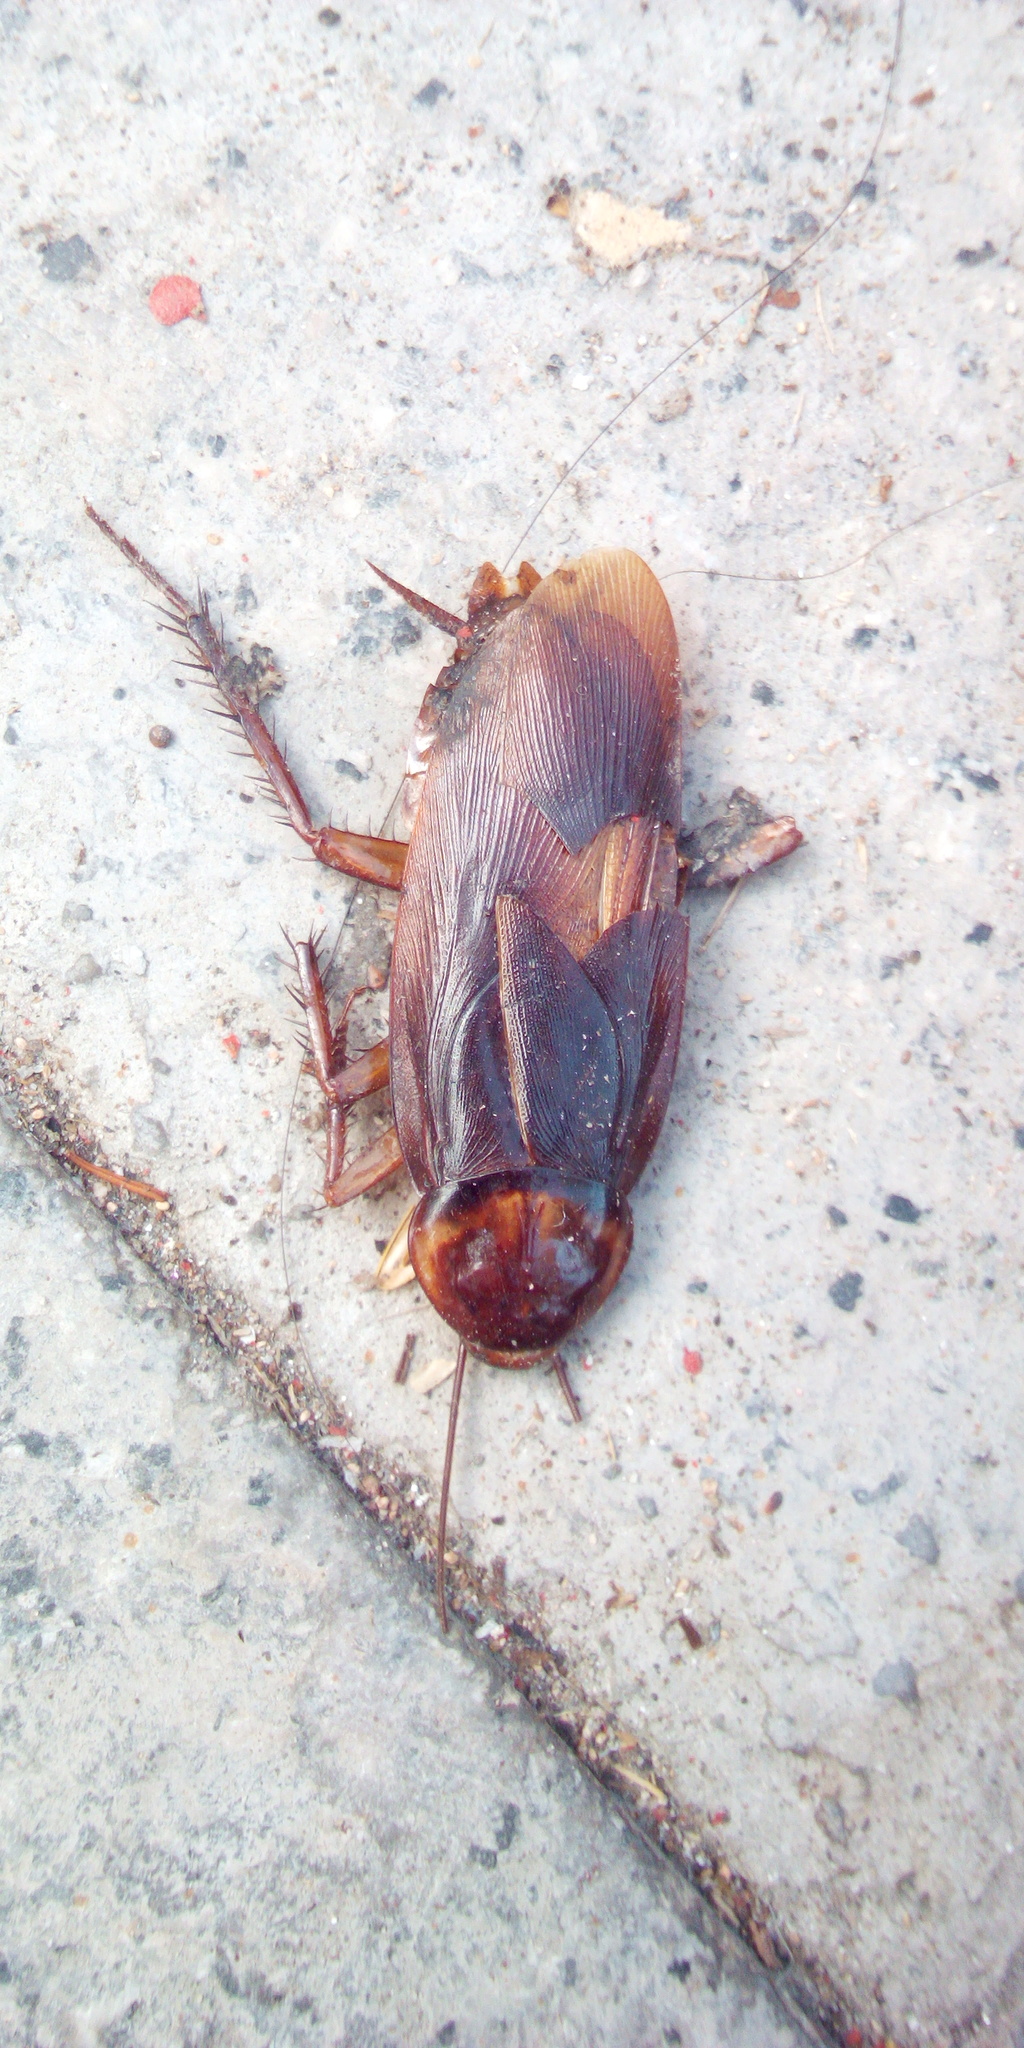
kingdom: Animalia
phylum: Arthropoda
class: Insecta
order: Blattodea
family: Blattidae
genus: Periplaneta
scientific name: Periplaneta americana
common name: American cockroach
